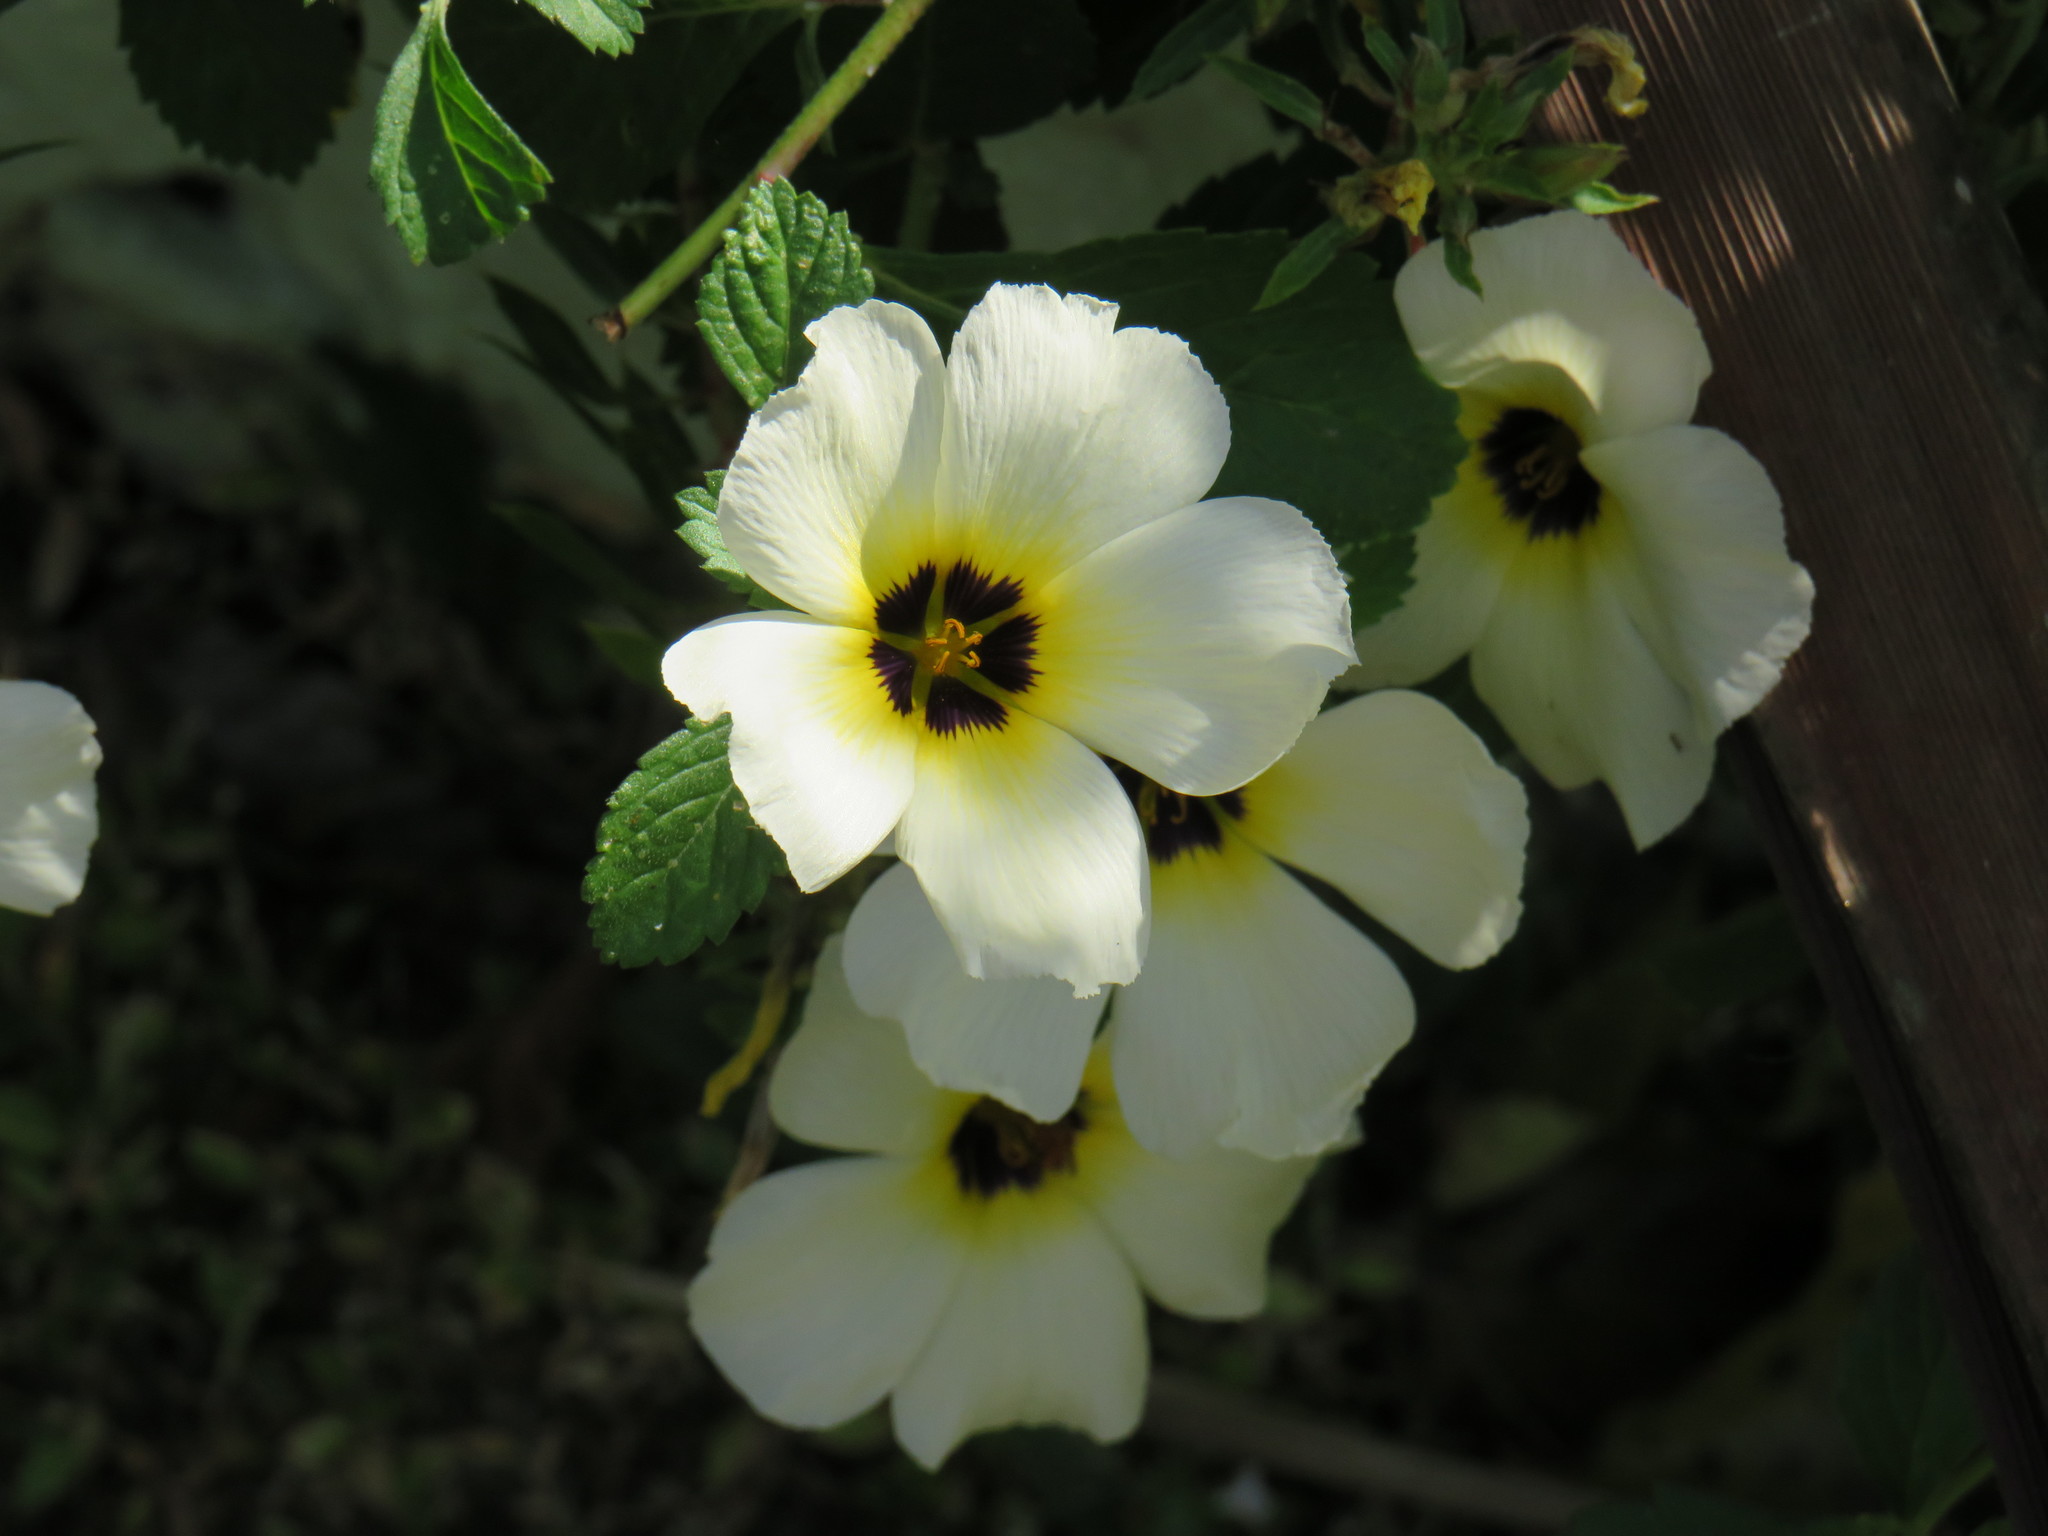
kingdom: Plantae
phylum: Tracheophyta
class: Magnoliopsida
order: Malpighiales
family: Turneraceae
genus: Turnera
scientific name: Turnera subulata
